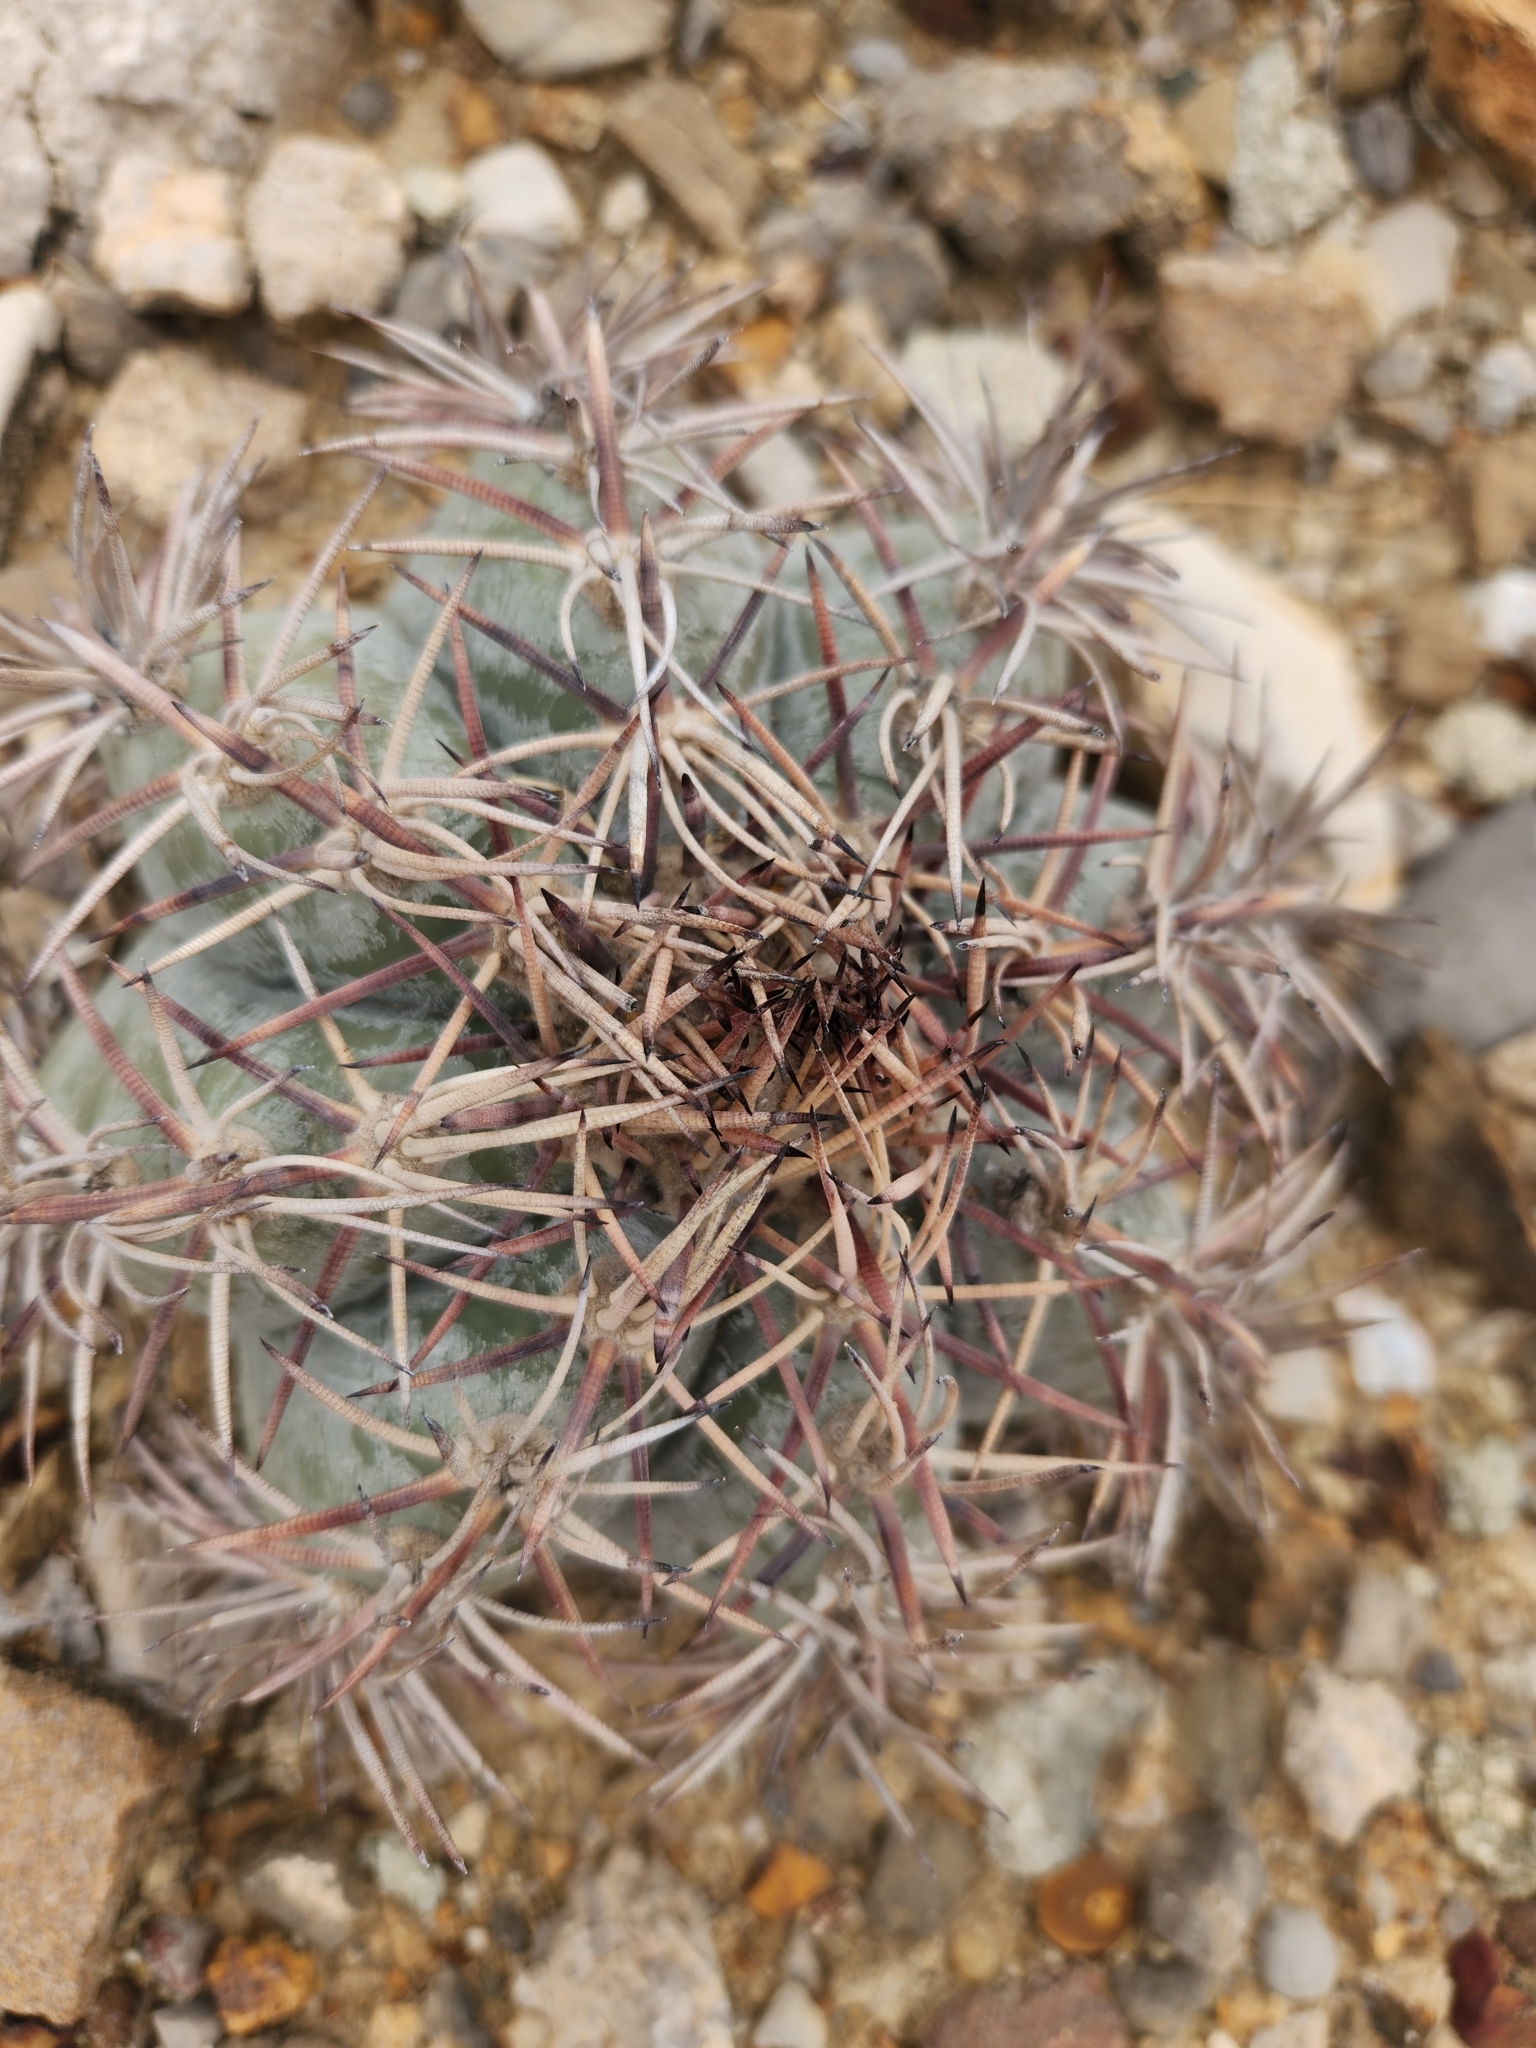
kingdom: Plantae
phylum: Tracheophyta
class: Magnoliopsida
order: Caryophyllales
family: Cactaceae
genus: Echinocactus
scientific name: Echinocactus horizonthalonius
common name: Devilshead
